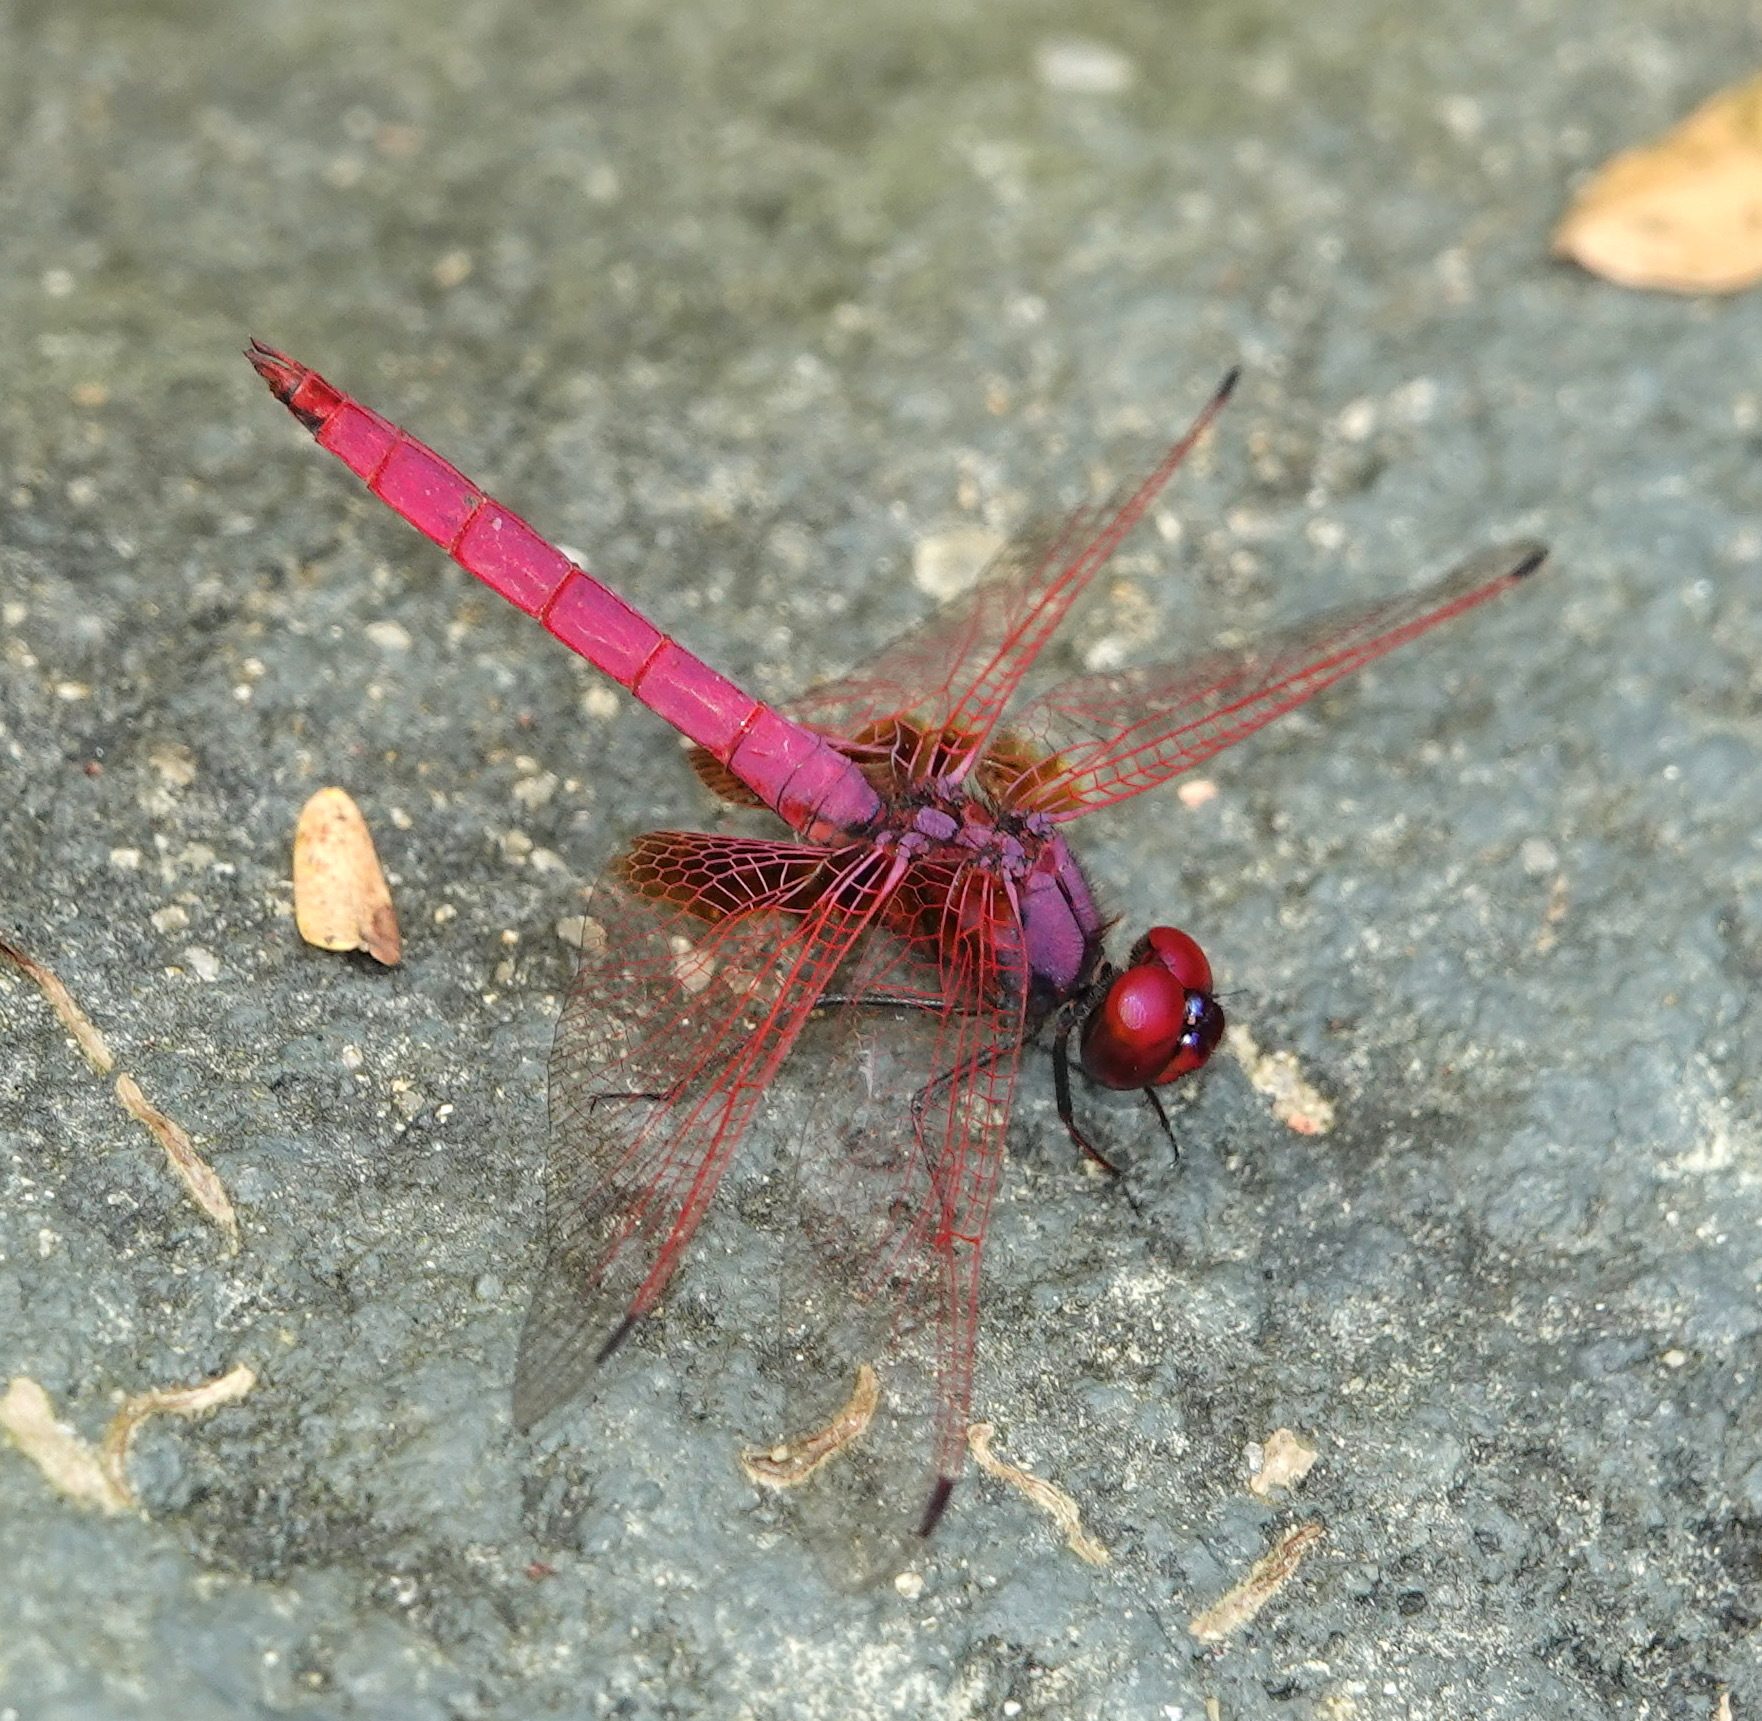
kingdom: Animalia
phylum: Arthropoda
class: Insecta
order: Odonata
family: Libellulidae
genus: Trithemis
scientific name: Trithemis aurora
